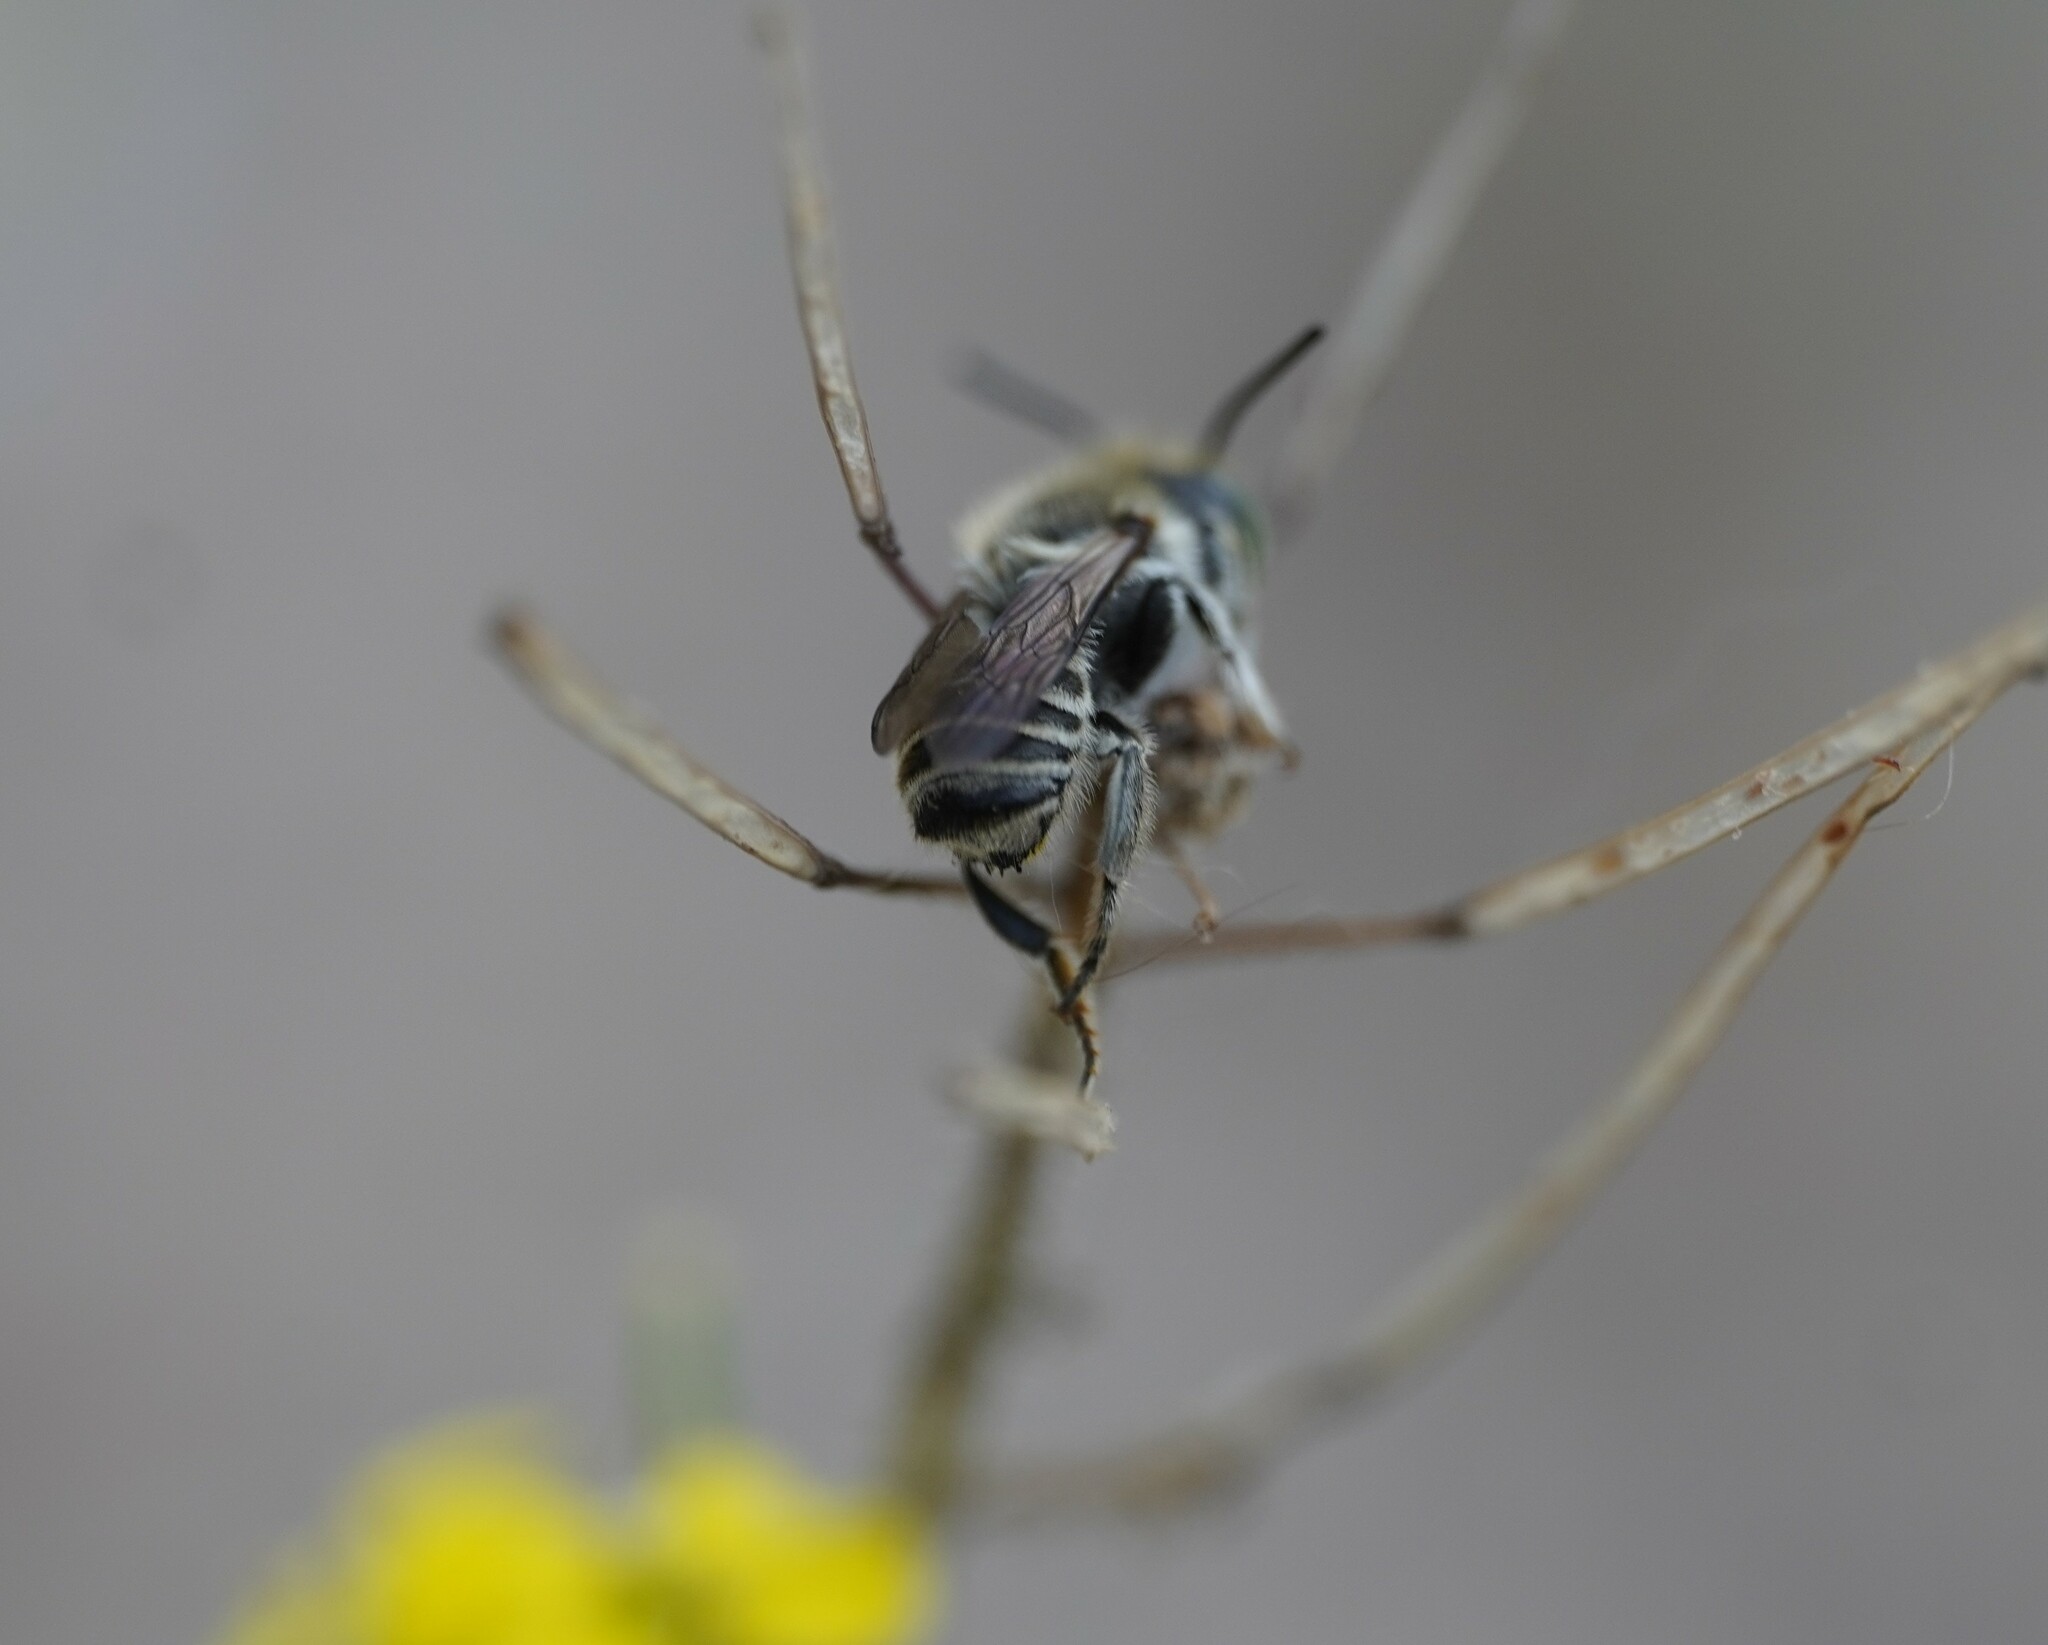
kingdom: Animalia
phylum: Arthropoda
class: Insecta
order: Hymenoptera
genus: Eutricharaea
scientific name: Eutricharaea
